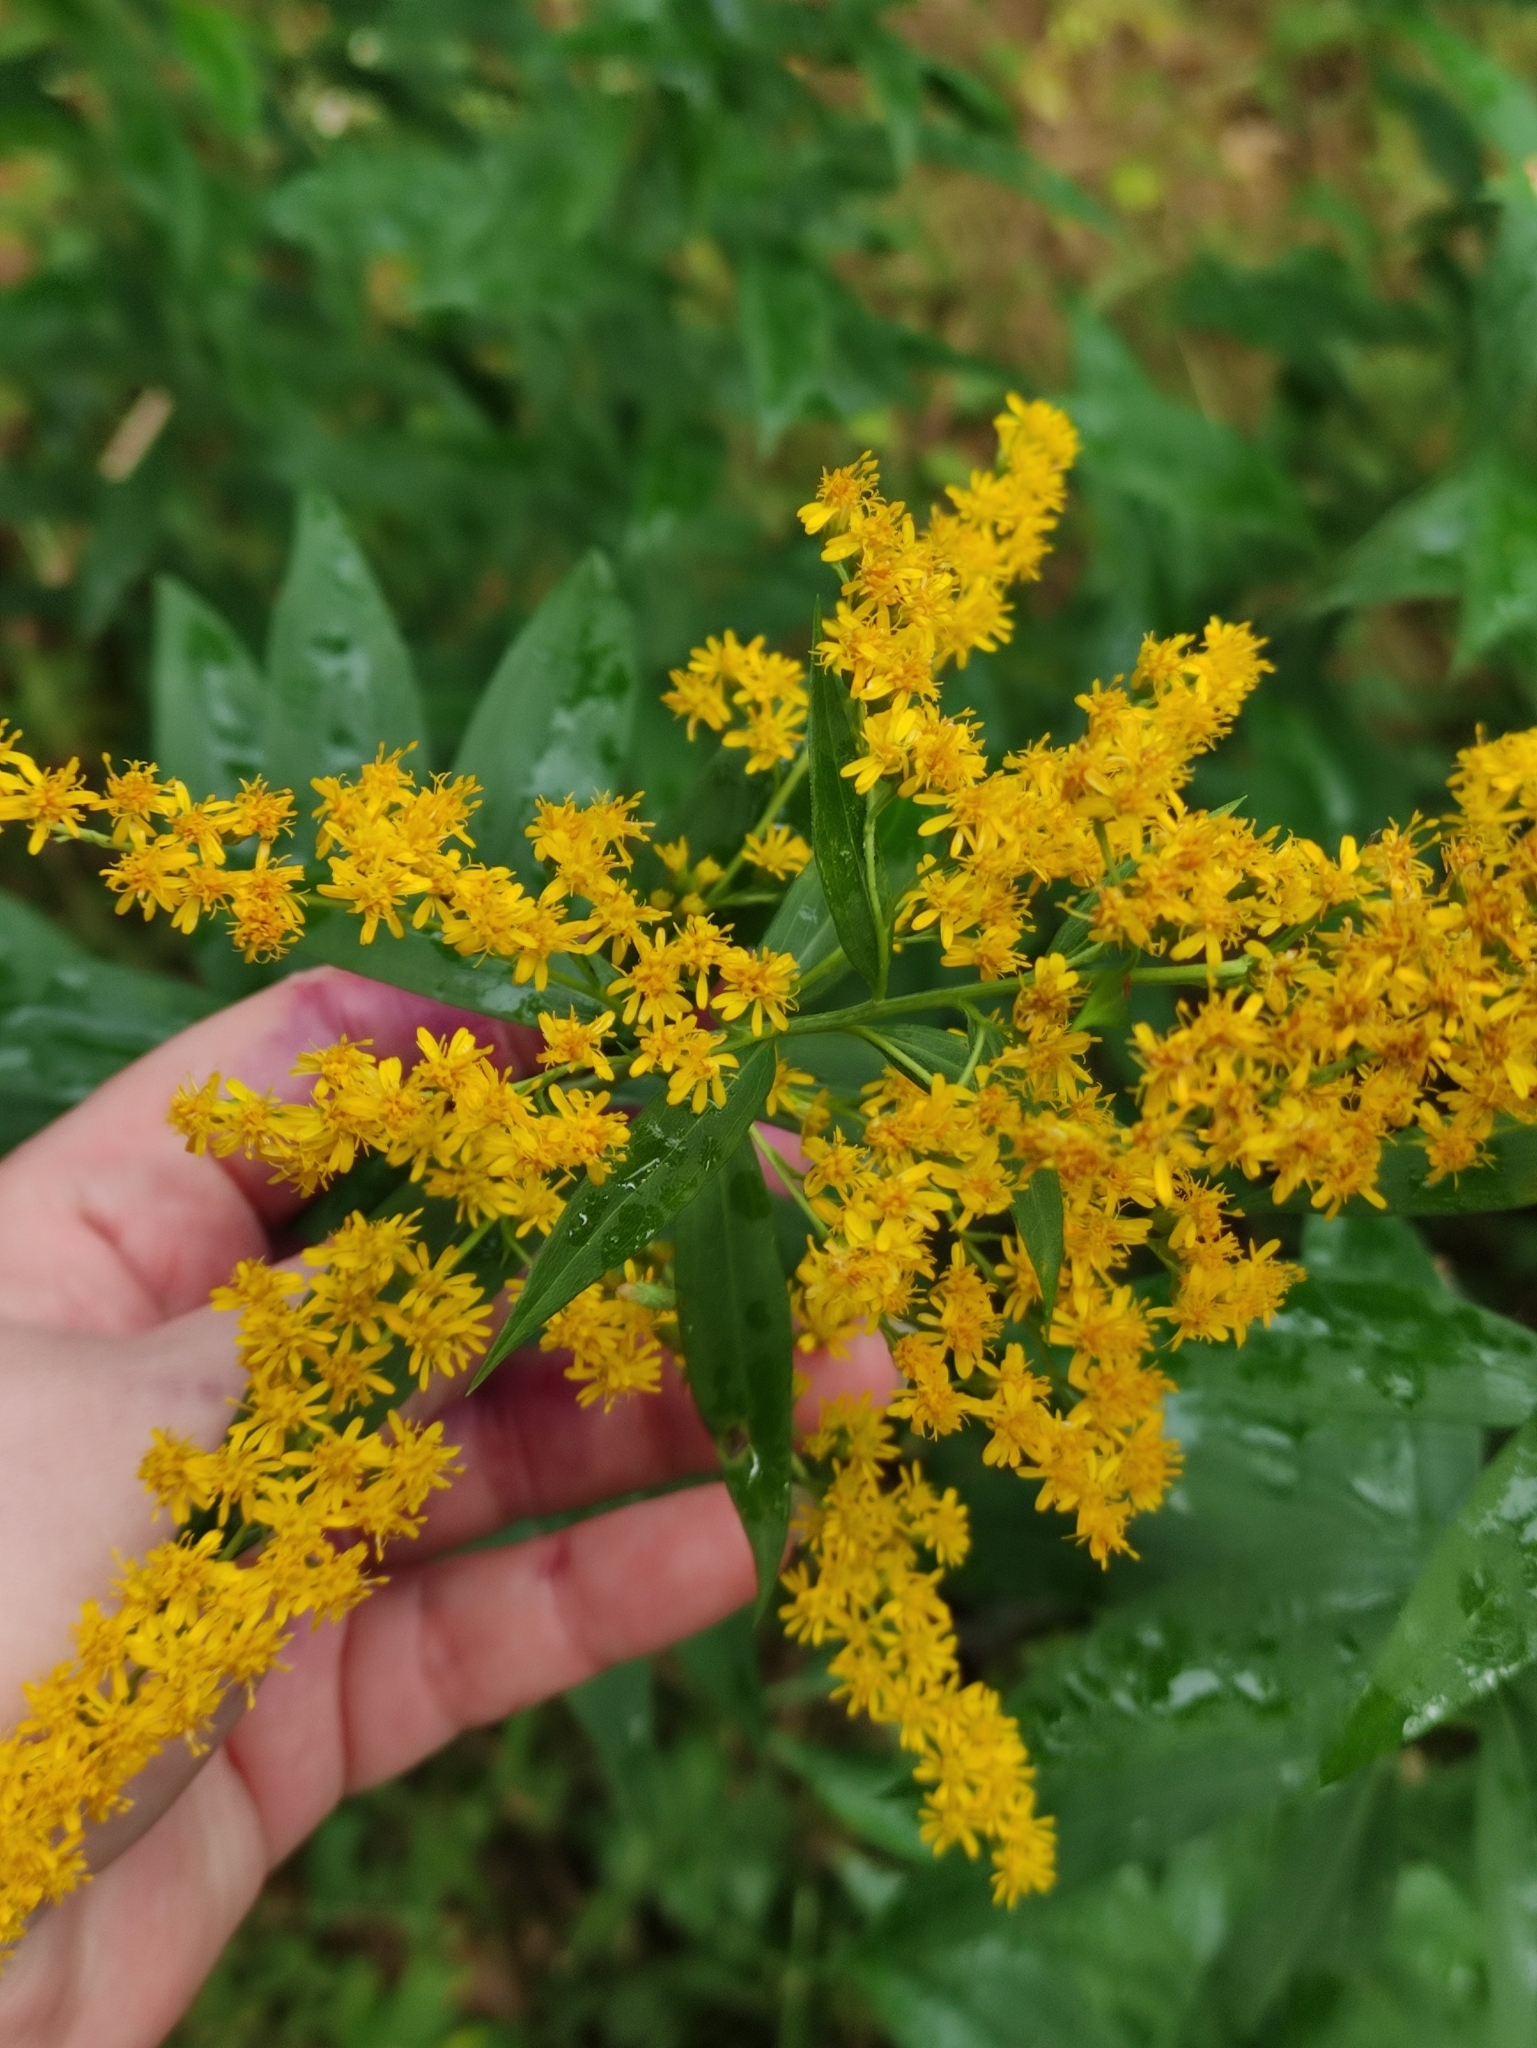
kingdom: Plantae
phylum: Tracheophyta
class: Magnoliopsida
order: Asterales
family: Asteraceae
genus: Solidago
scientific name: Solidago gigantea
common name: Giant goldenrod
